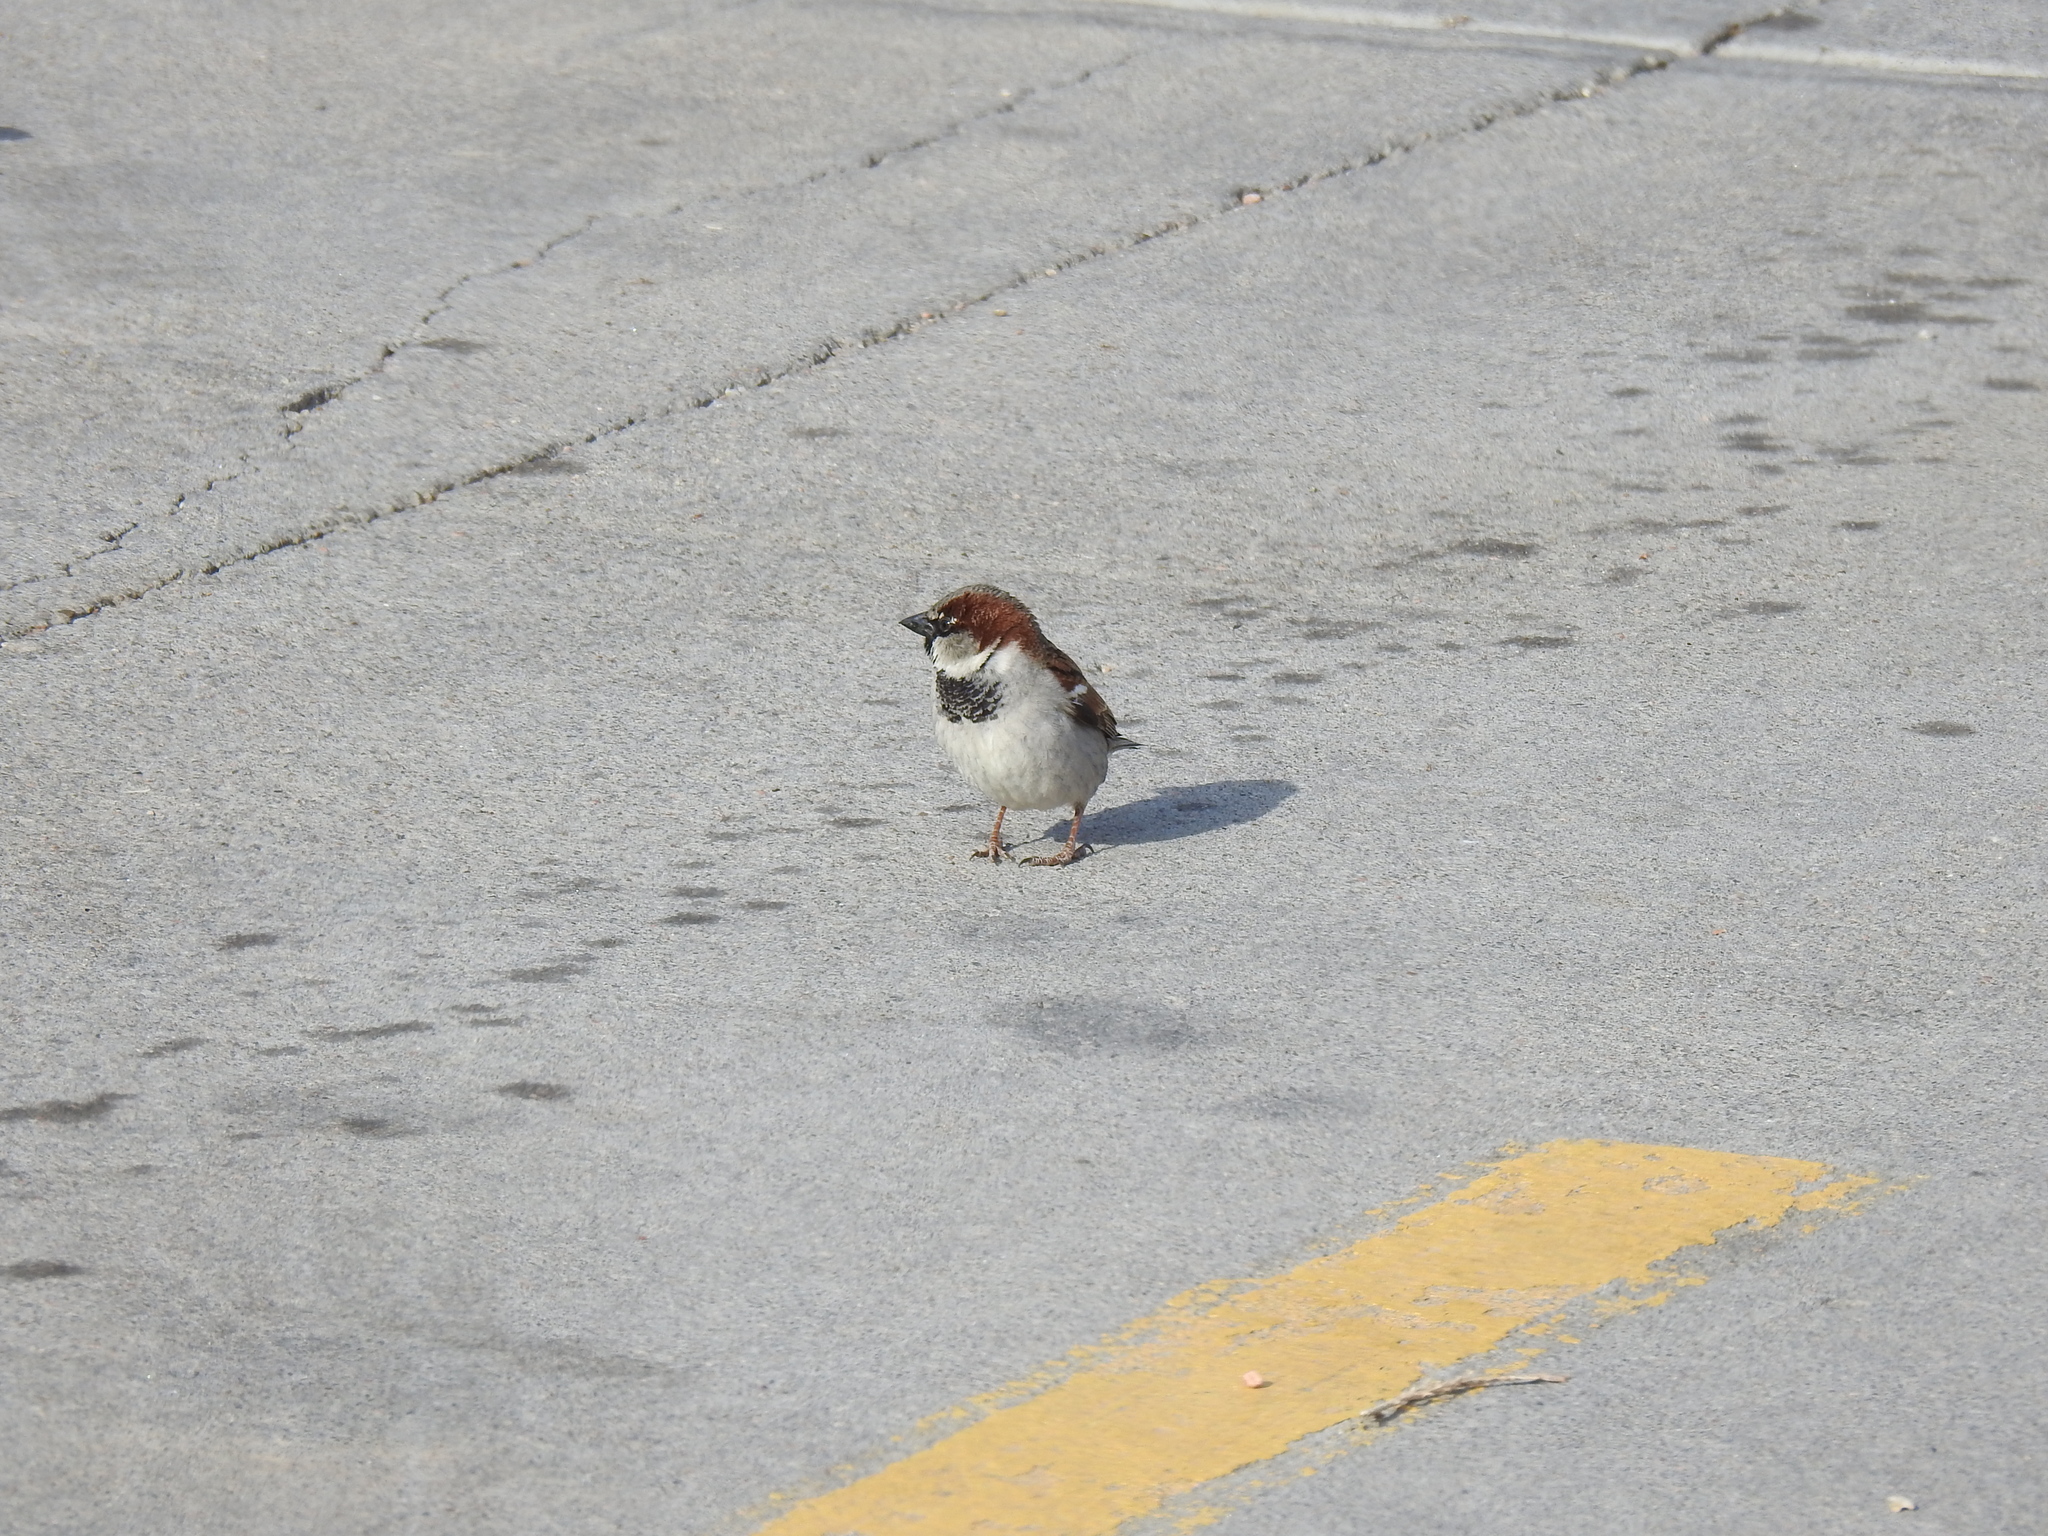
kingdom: Animalia
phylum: Chordata
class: Aves
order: Passeriformes
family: Passeridae
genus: Passer
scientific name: Passer domesticus
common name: House sparrow
